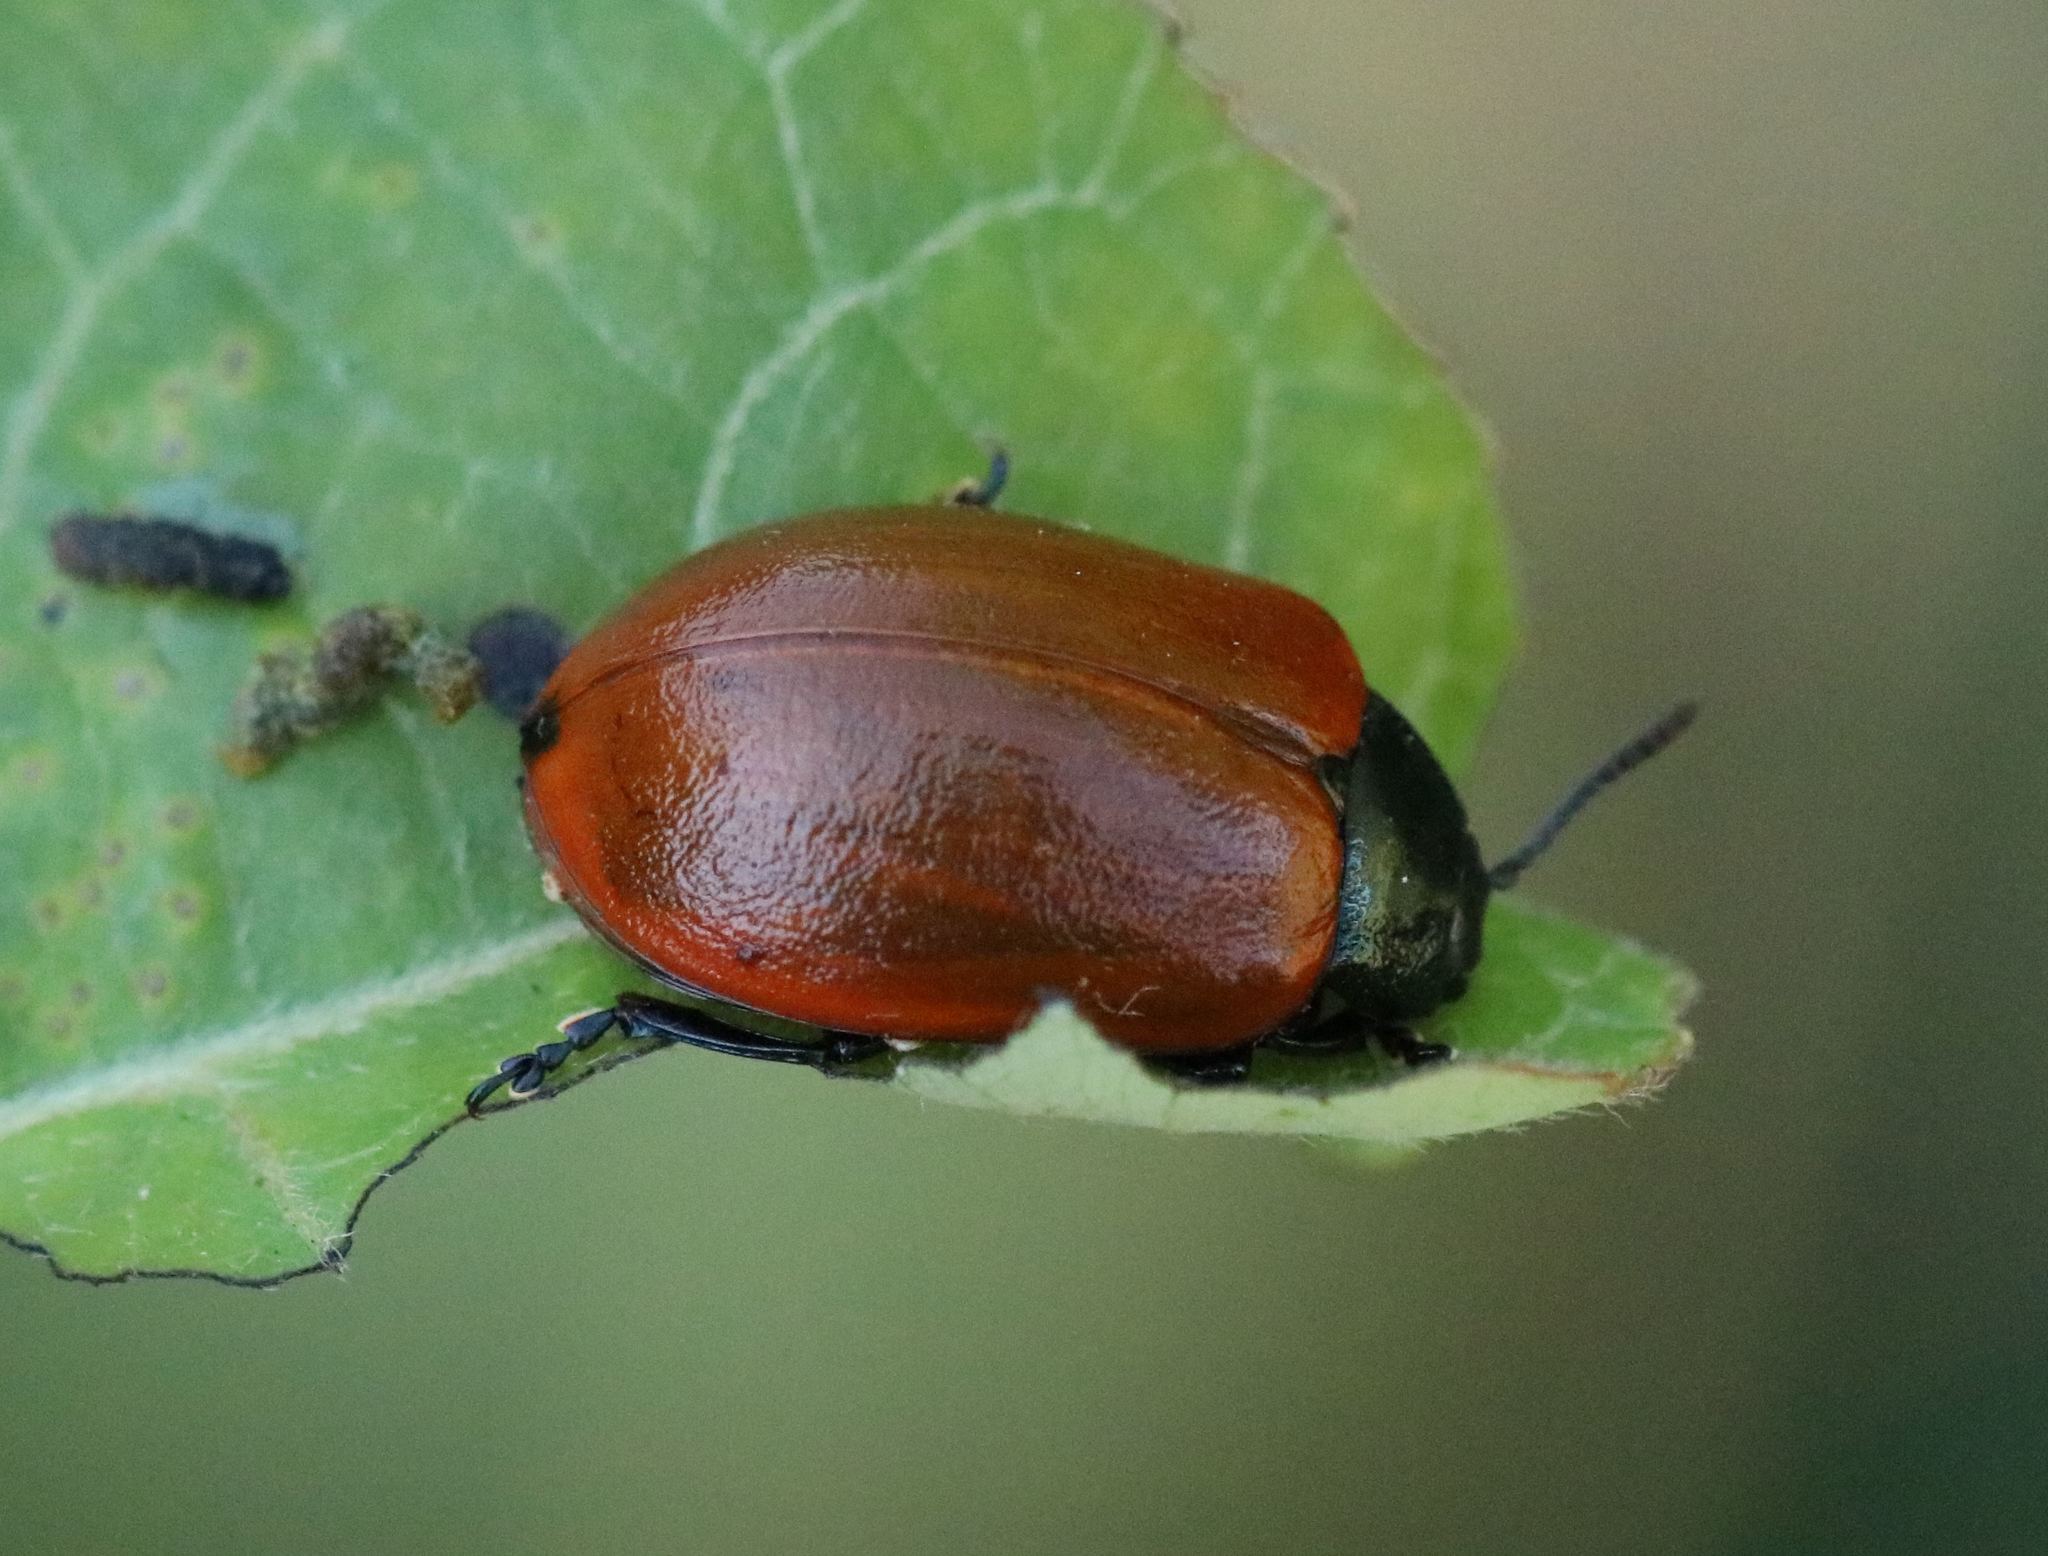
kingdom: Animalia
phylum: Arthropoda
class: Insecta
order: Coleoptera
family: Chrysomelidae
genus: Chrysomela
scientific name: Chrysomela populi
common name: Red poplar leaf beetle
